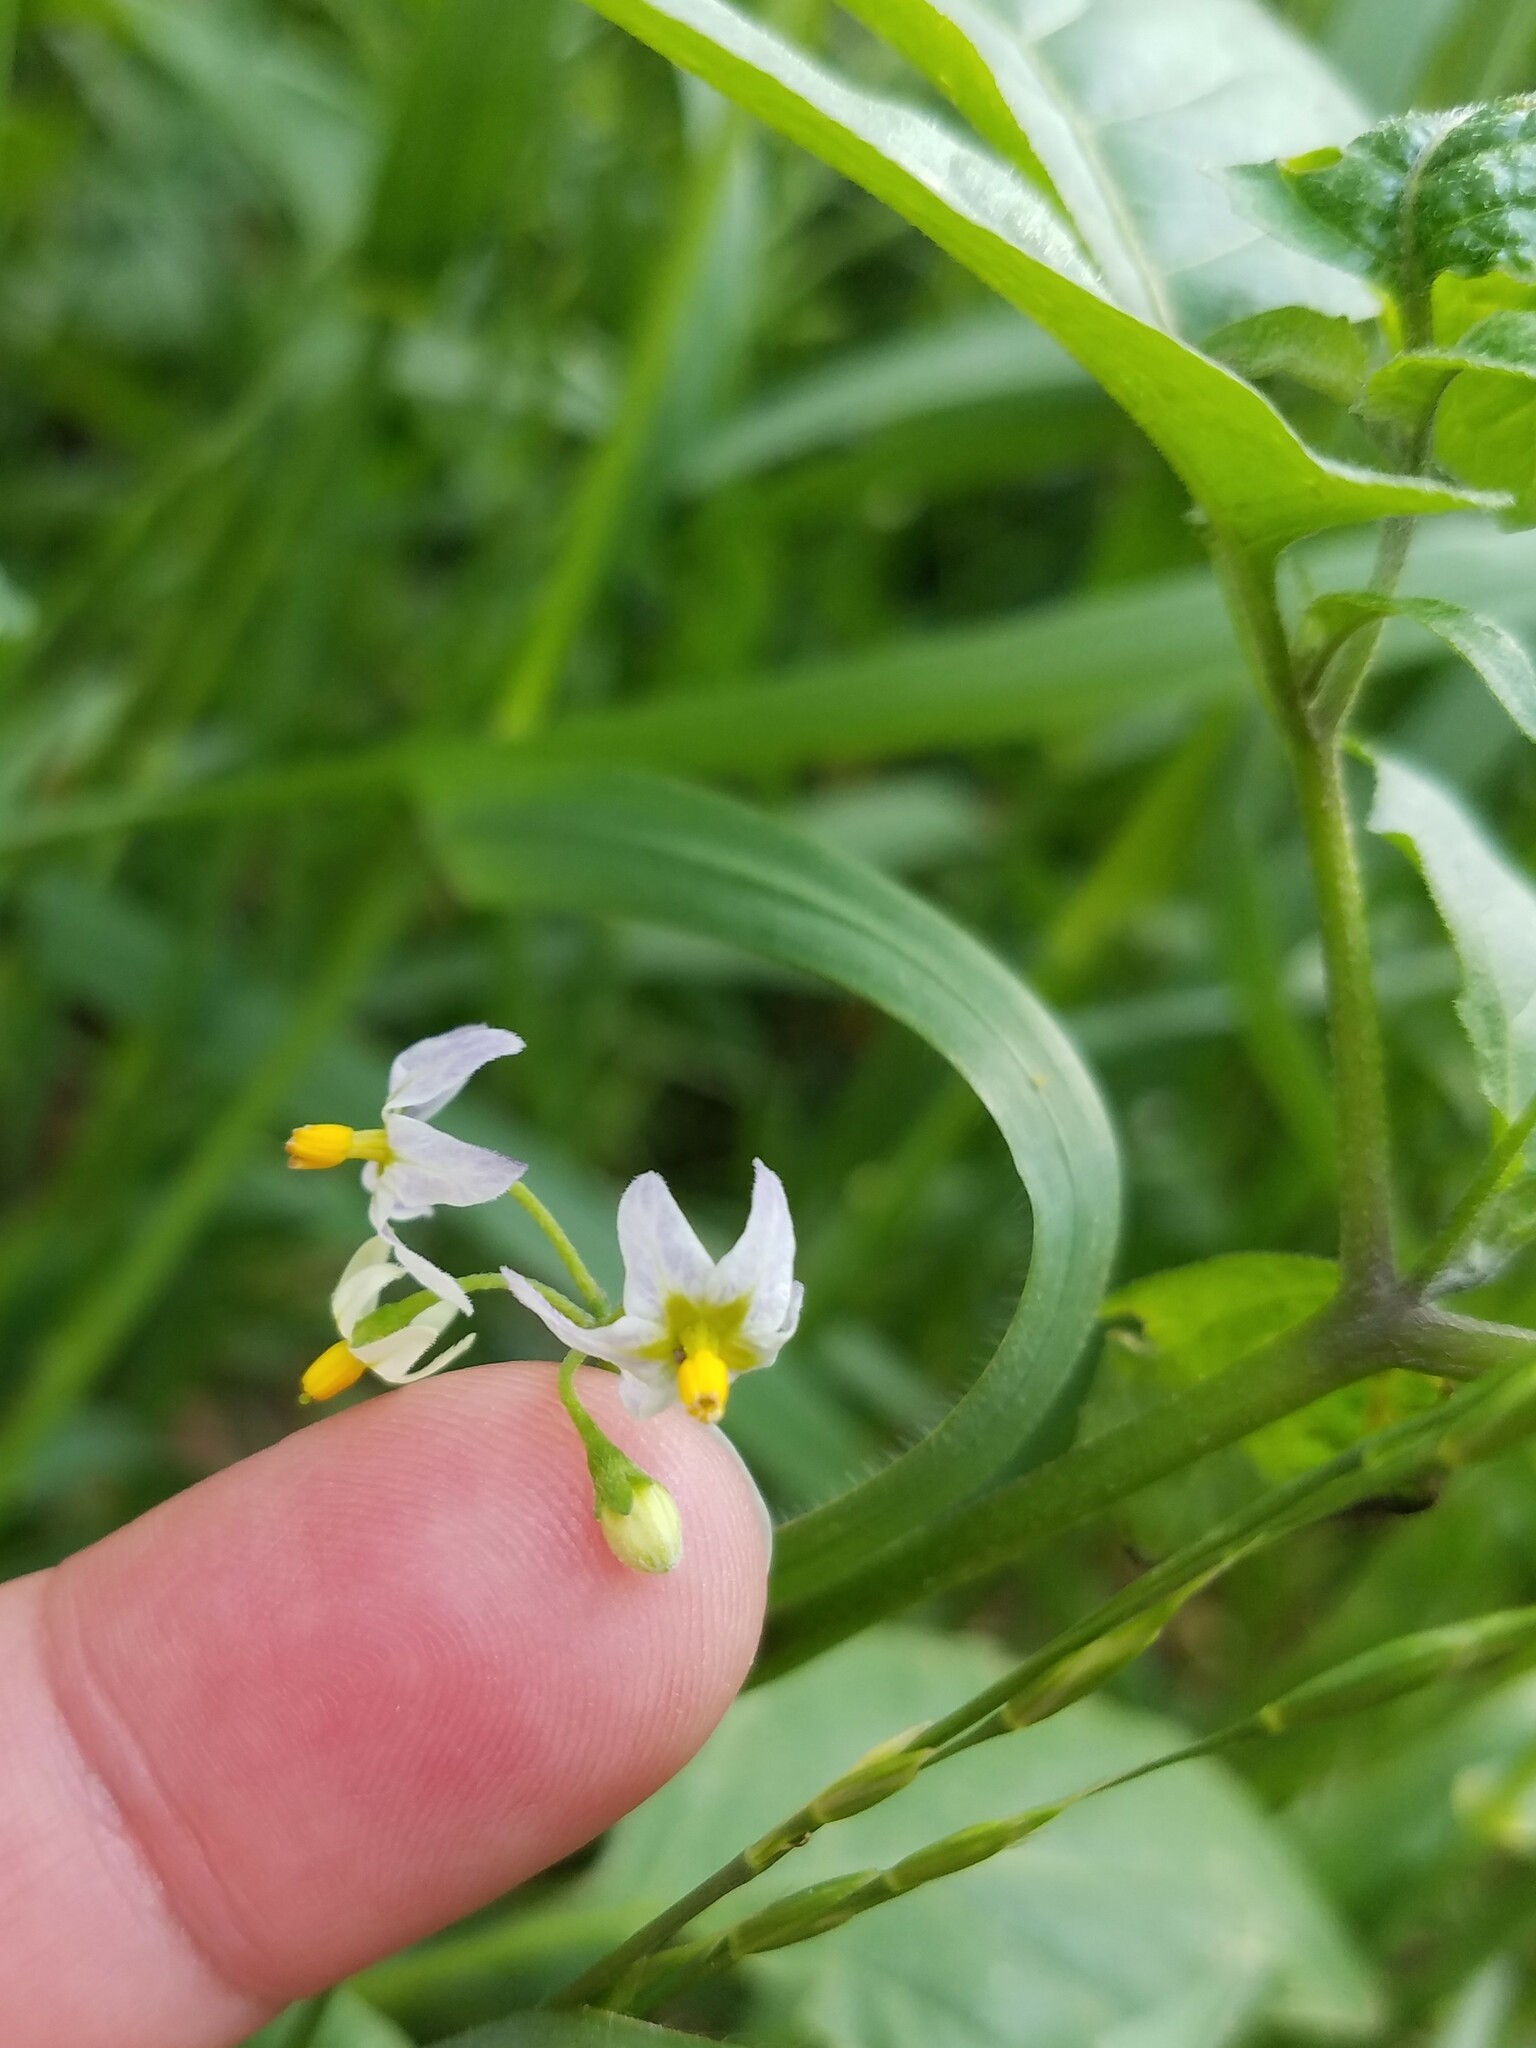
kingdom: Plantae
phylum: Tracheophyta
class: Magnoliopsida
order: Solanales
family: Solanaceae
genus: Solanum
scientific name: Solanum emulans
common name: Eastern black nightshade
